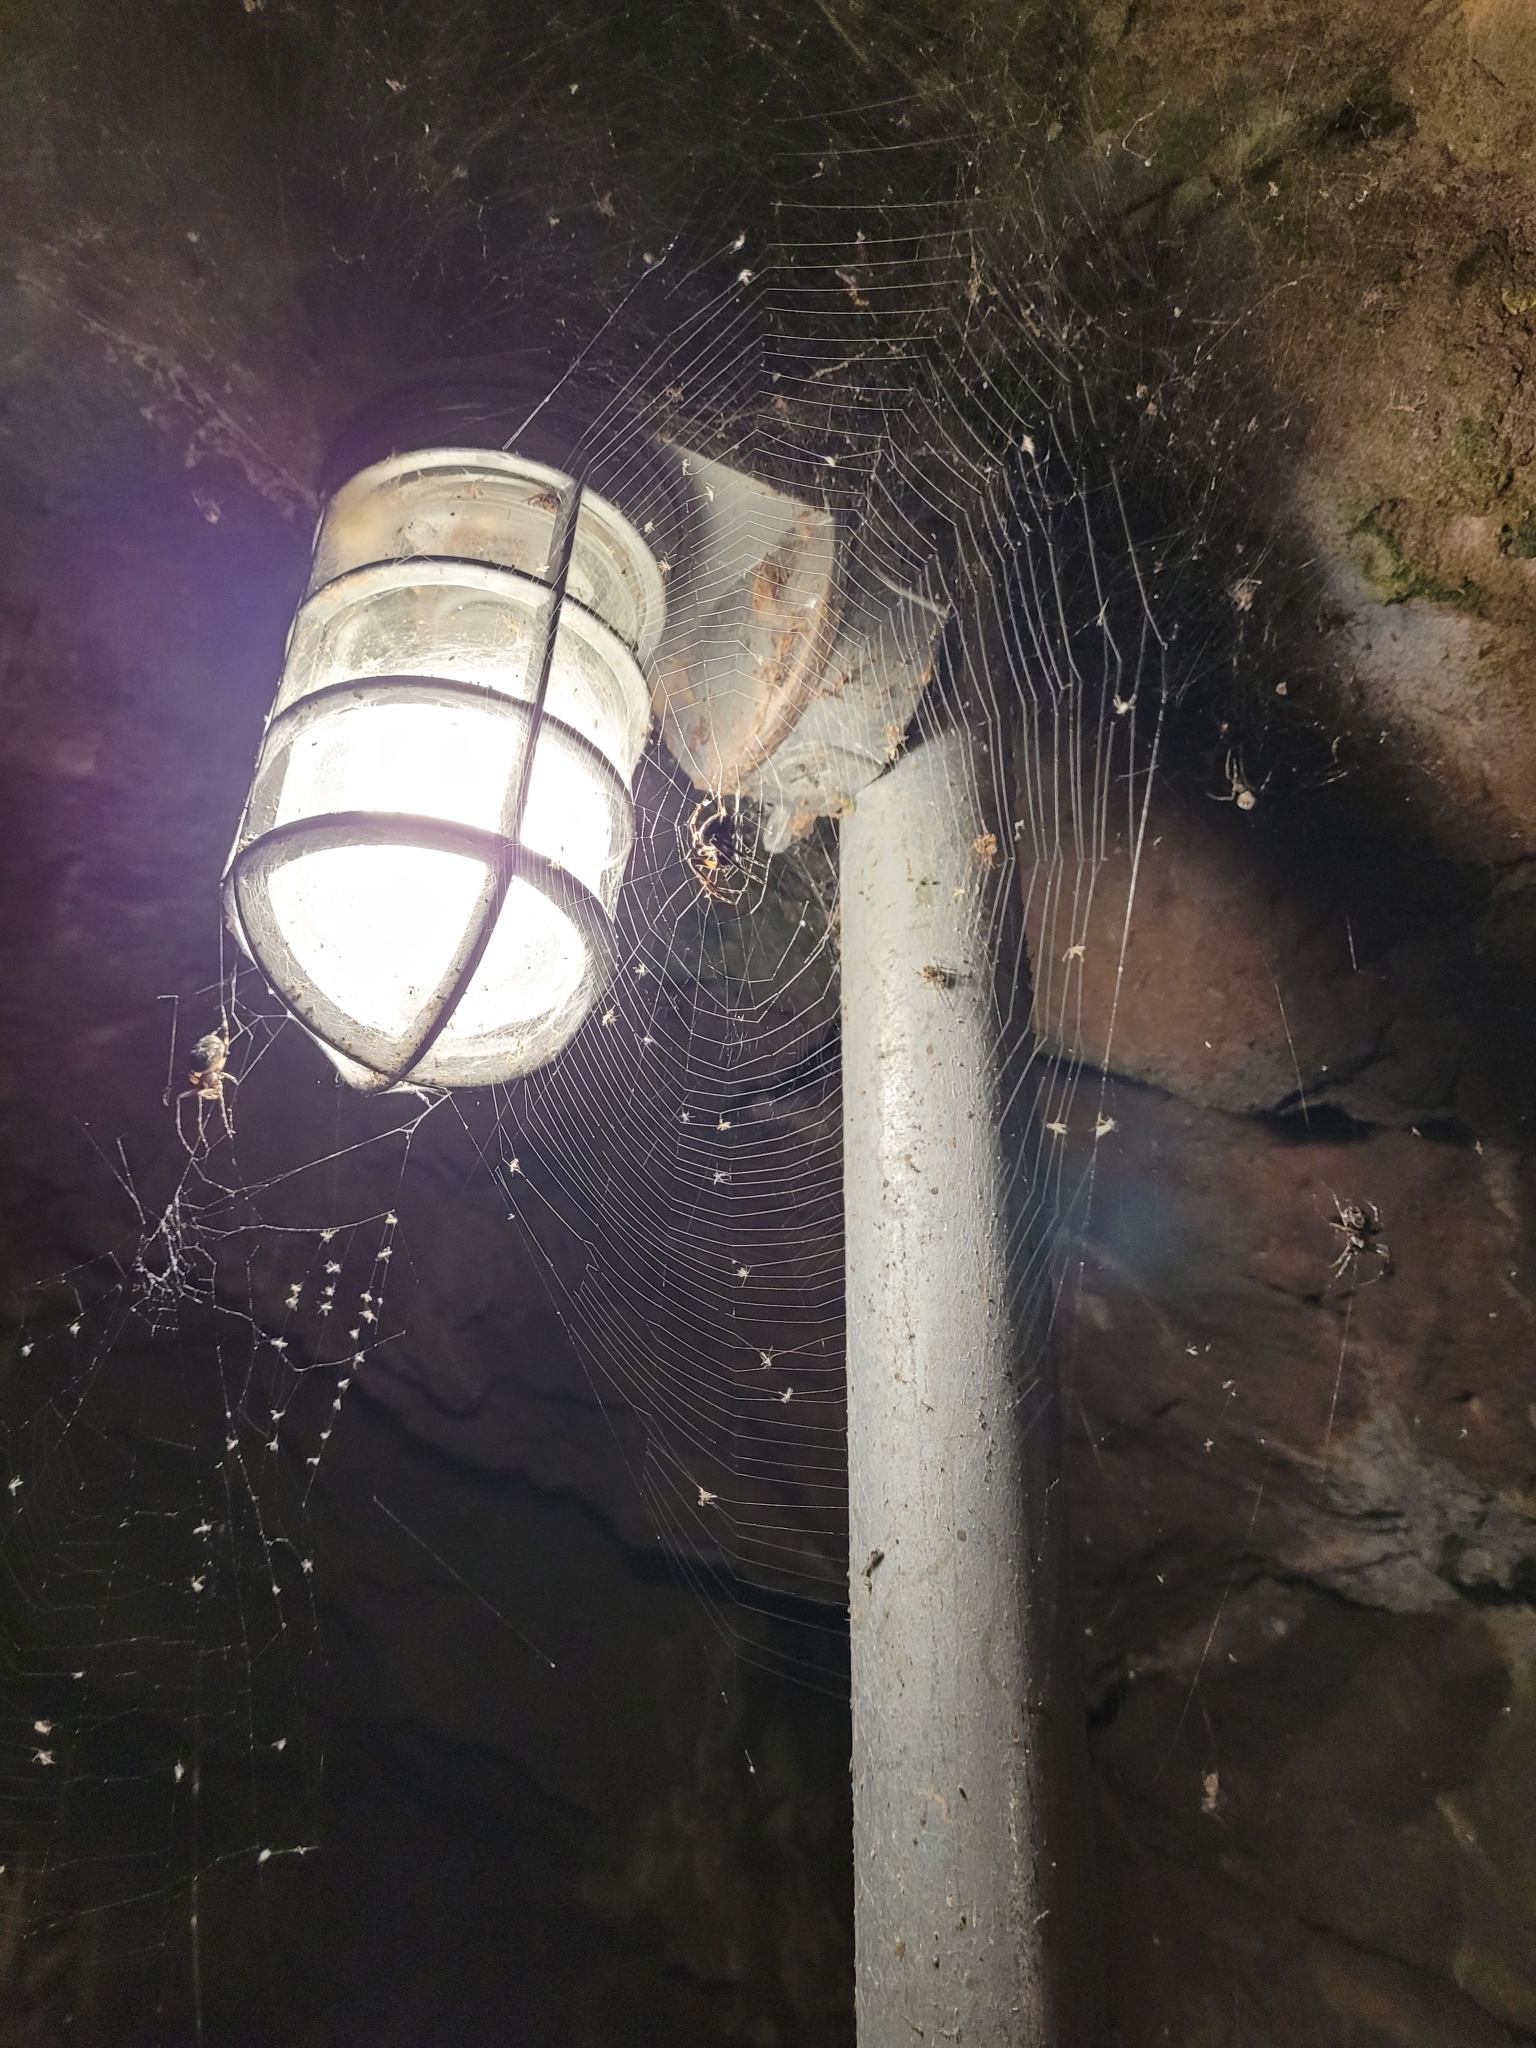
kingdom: Animalia
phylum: Arthropoda
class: Arachnida
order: Araneae
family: Araneidae
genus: Larinioides
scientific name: Larinioides sclopetarius
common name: Bridge orbweaver
